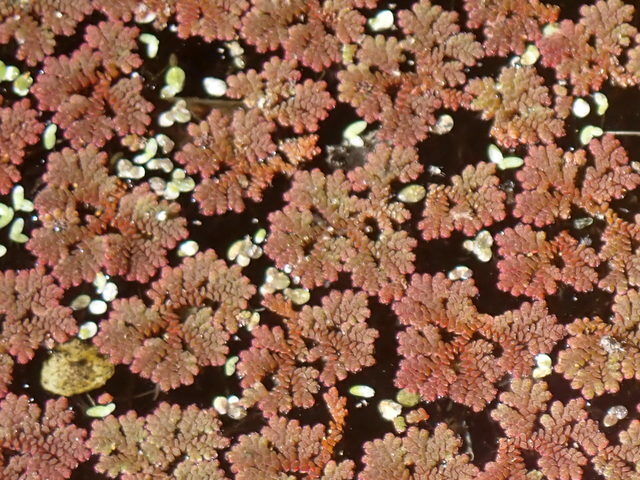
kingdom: Plantae
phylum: Tracheophyta
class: Polypodiopsida
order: Salviniales
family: Salviniaceae
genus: Azolla
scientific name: Azolla caroliniana
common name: Carolina mosquitofern
